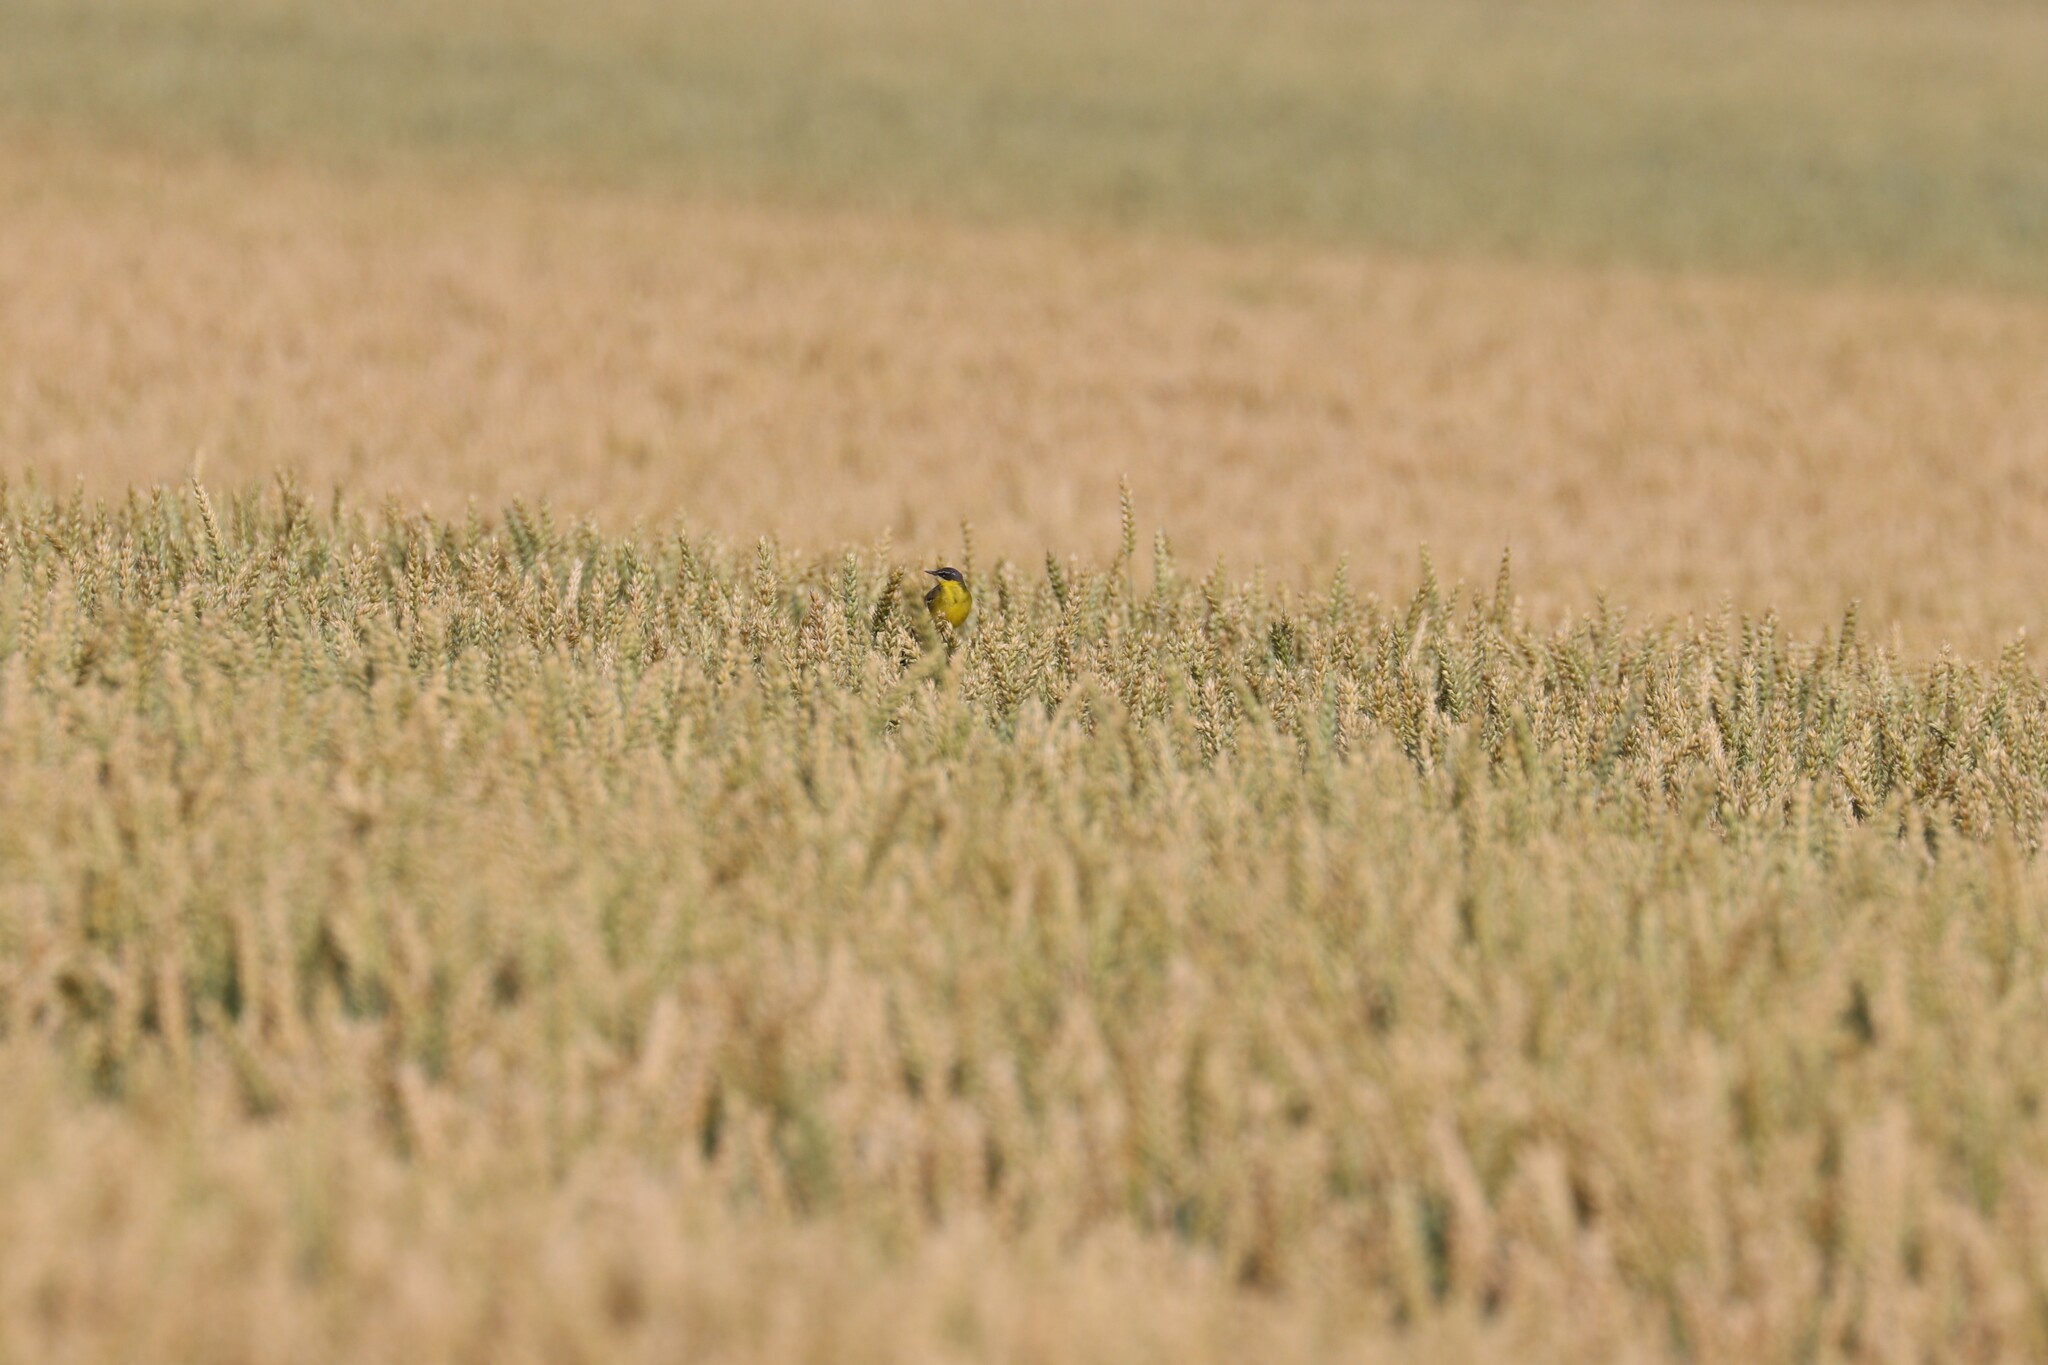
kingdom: Animalia
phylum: Chordata
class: Aves
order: Passeriformes
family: Motacillidae
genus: Motacilla
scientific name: Motacilla flava
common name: Western yellow wagtail
